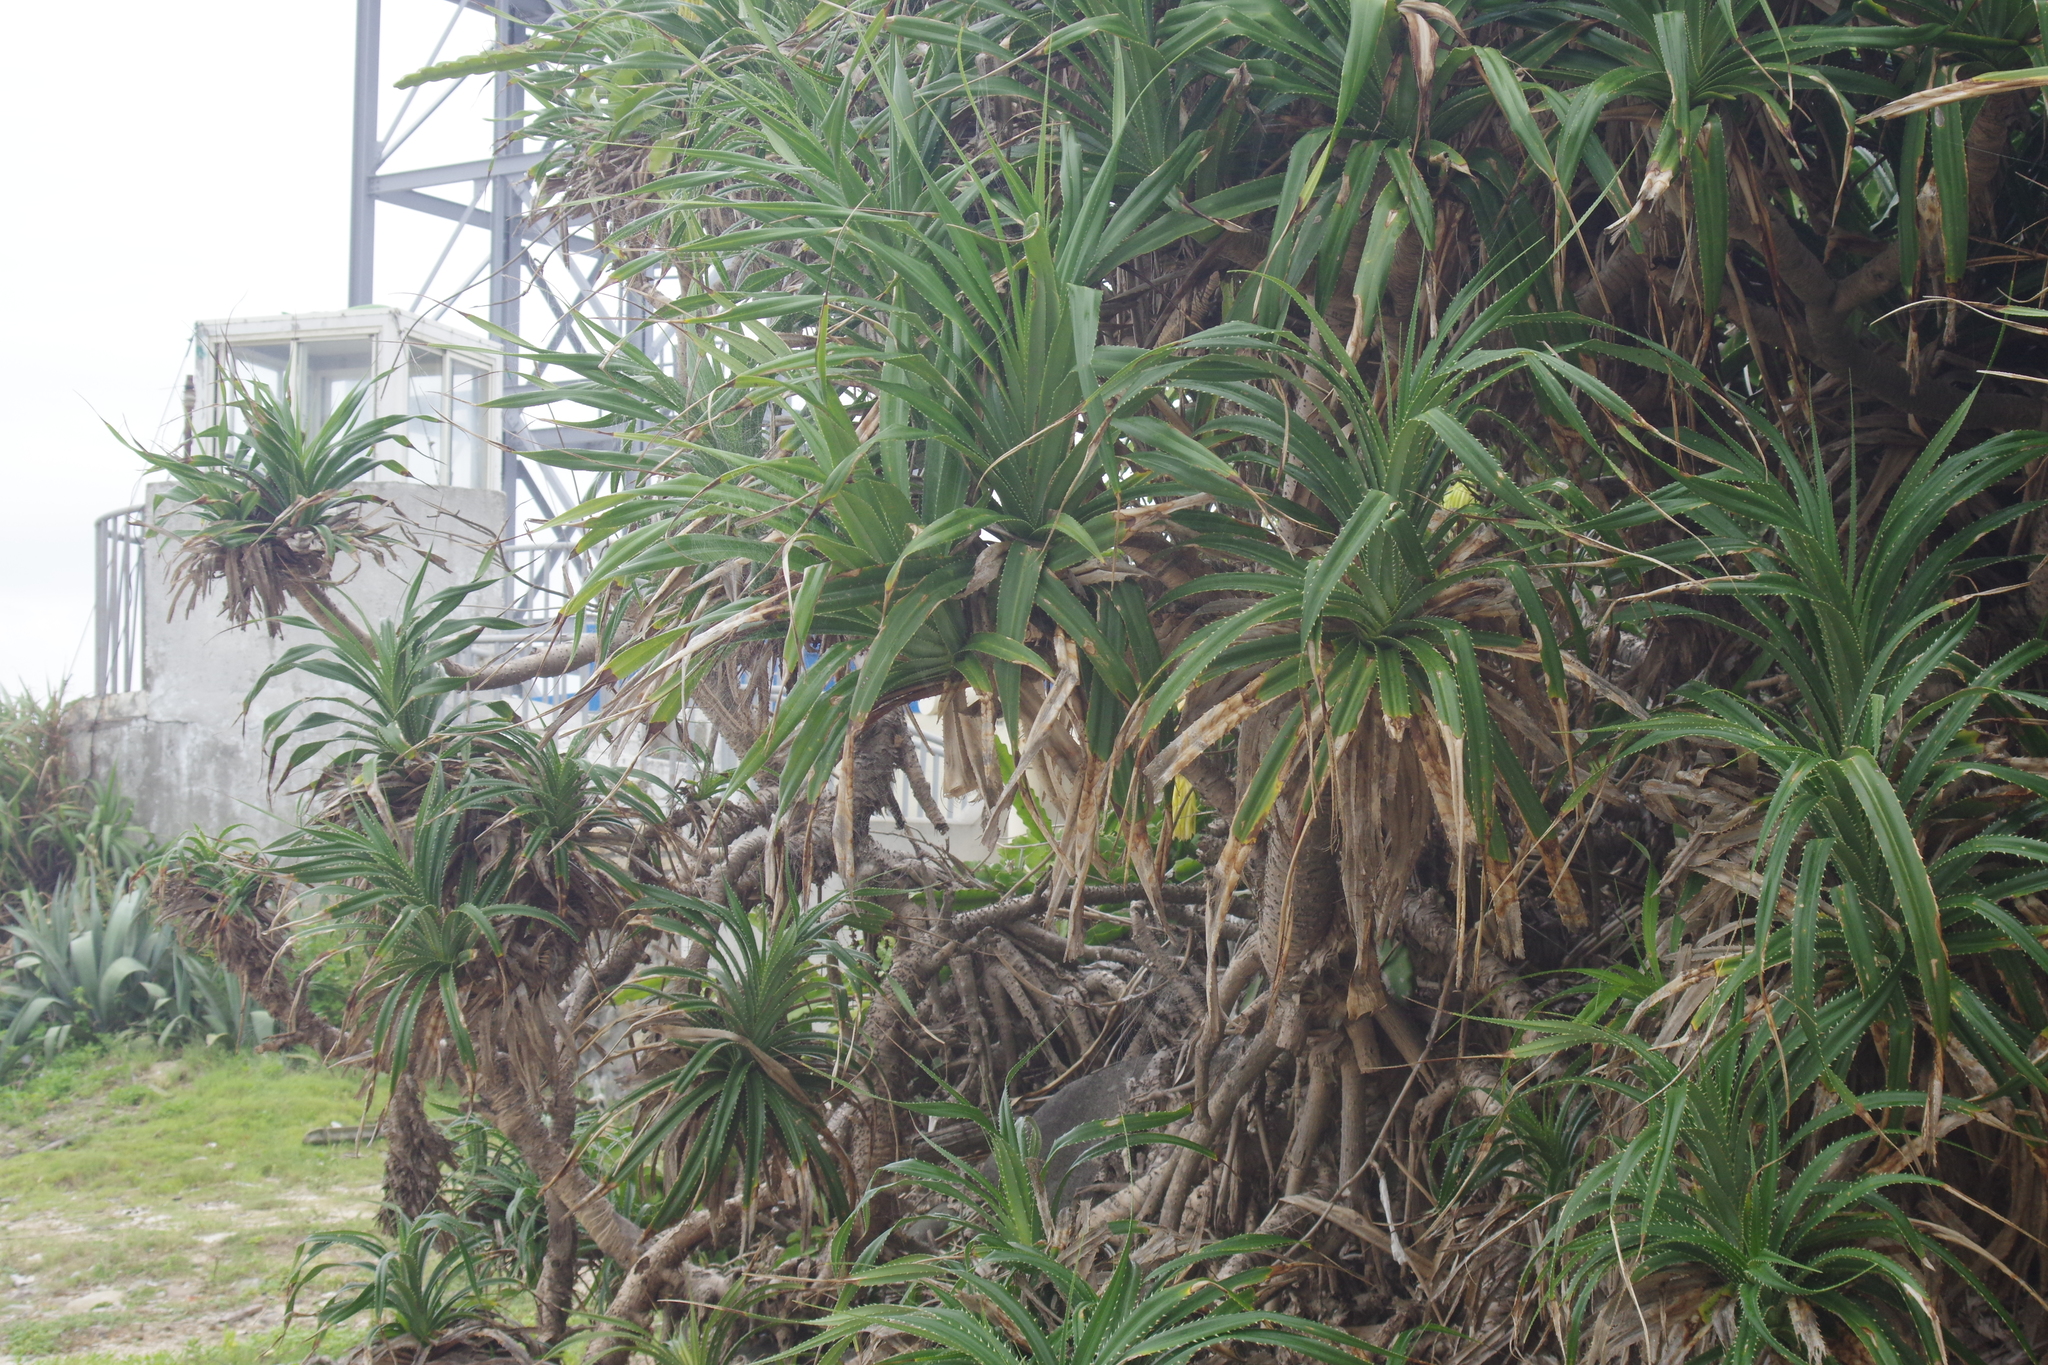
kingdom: Plantae
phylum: Tracheophyta
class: Liliopsida
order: Pandanales
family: Pandanaceae
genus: Pandanus
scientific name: Pandanus odorifer
